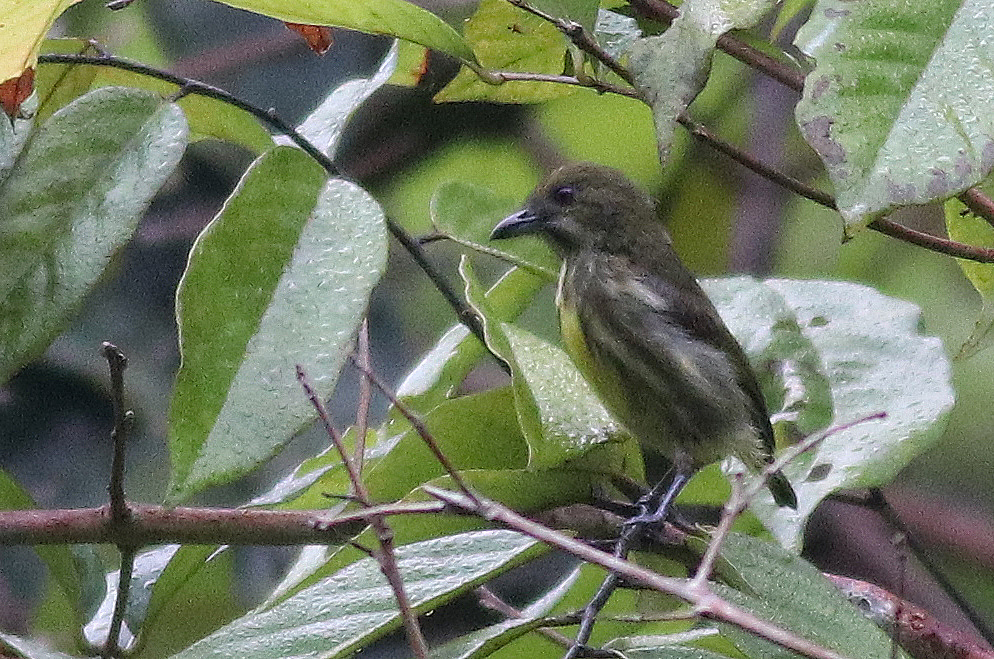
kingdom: Animalia
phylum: Chordata
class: Aves
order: Passeriformes
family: Dicaeidae
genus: Prionochilus
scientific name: Prionochilus maculatus
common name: Yellow-breasted flowerpecker
